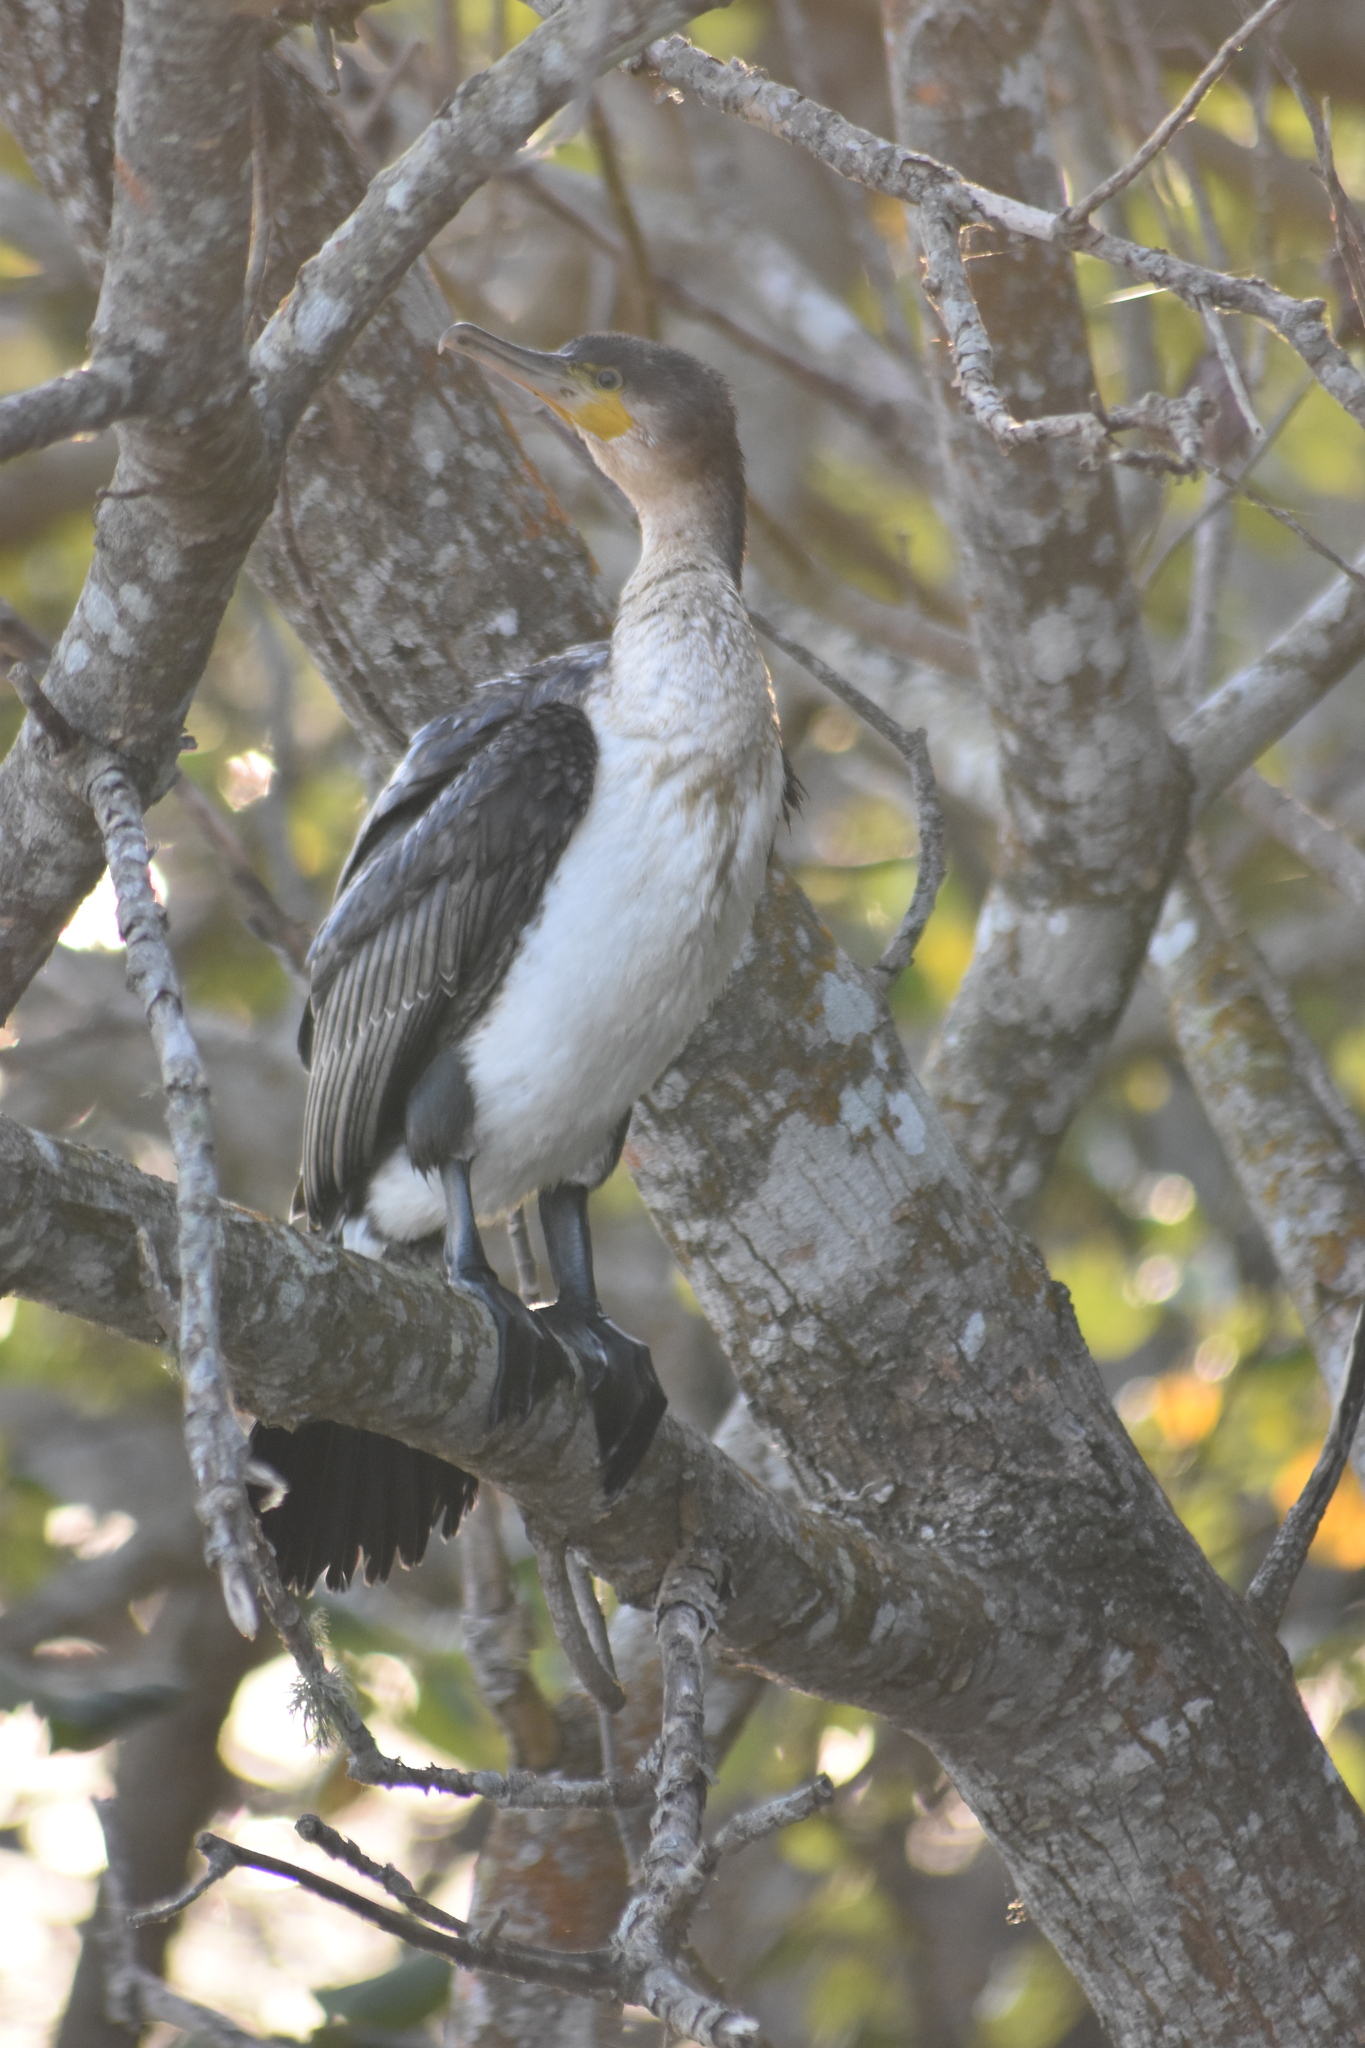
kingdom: Animalia
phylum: Chordata
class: Aves
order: Suliformes
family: Phalacrocoracidae
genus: Phalacrocorax
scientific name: Phalacrocorax carbo
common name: Great cormorant
